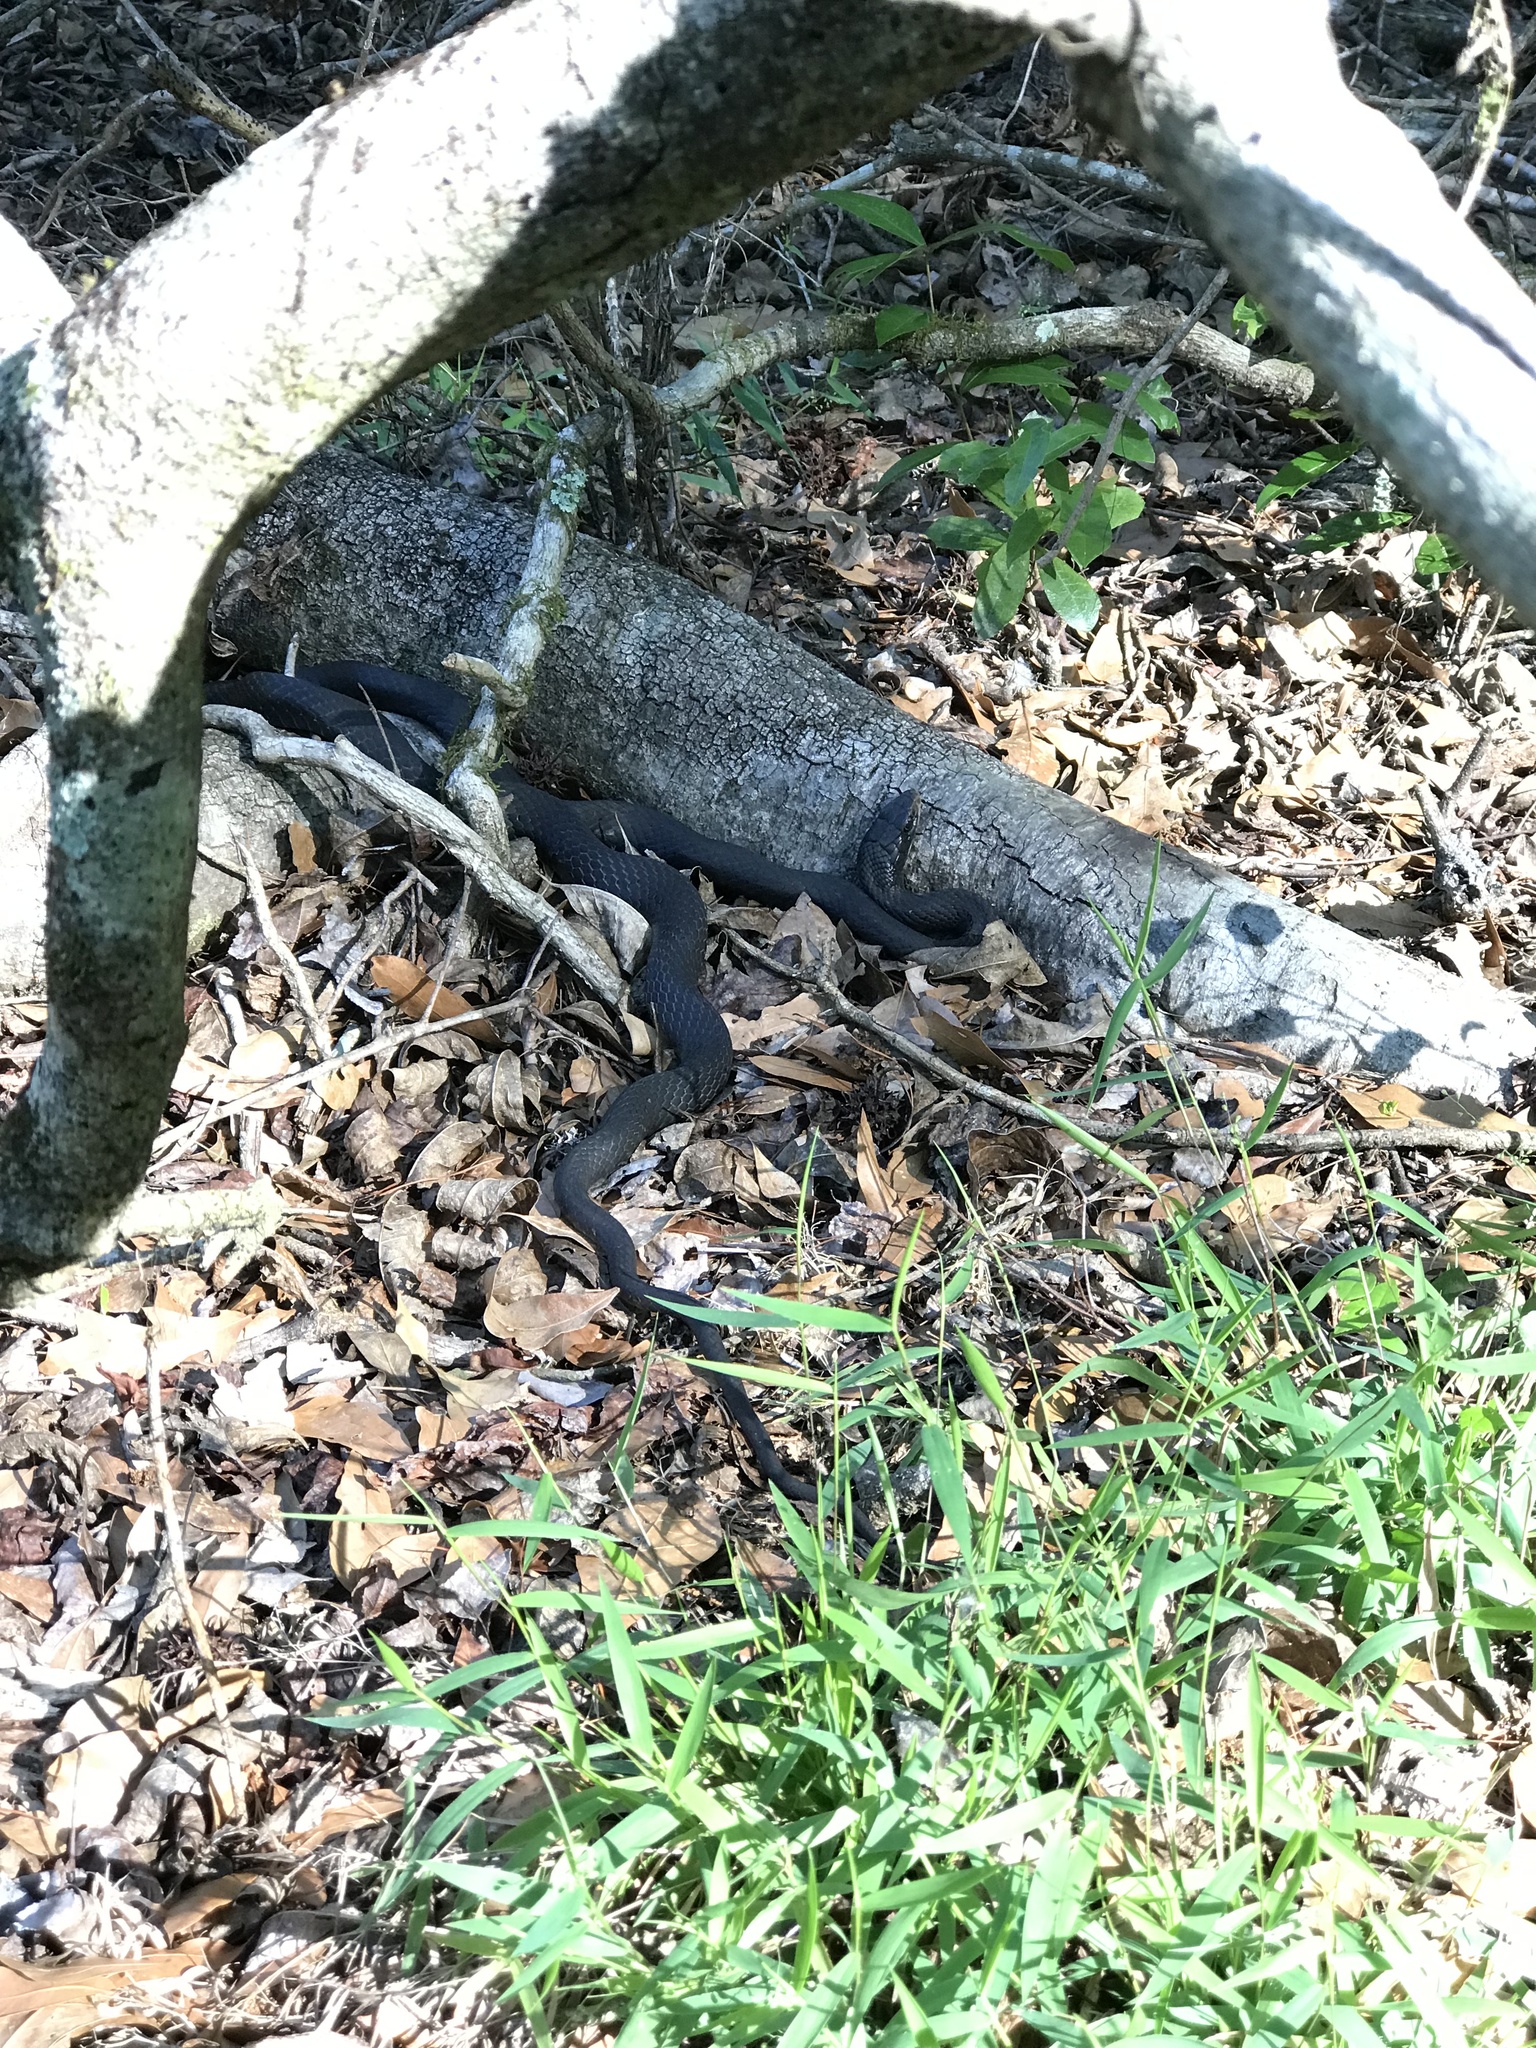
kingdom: Animalia
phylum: Chordata
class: Squamata
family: Colubridae
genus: Coluber
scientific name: Coluber constrictor
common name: Eastern racer
